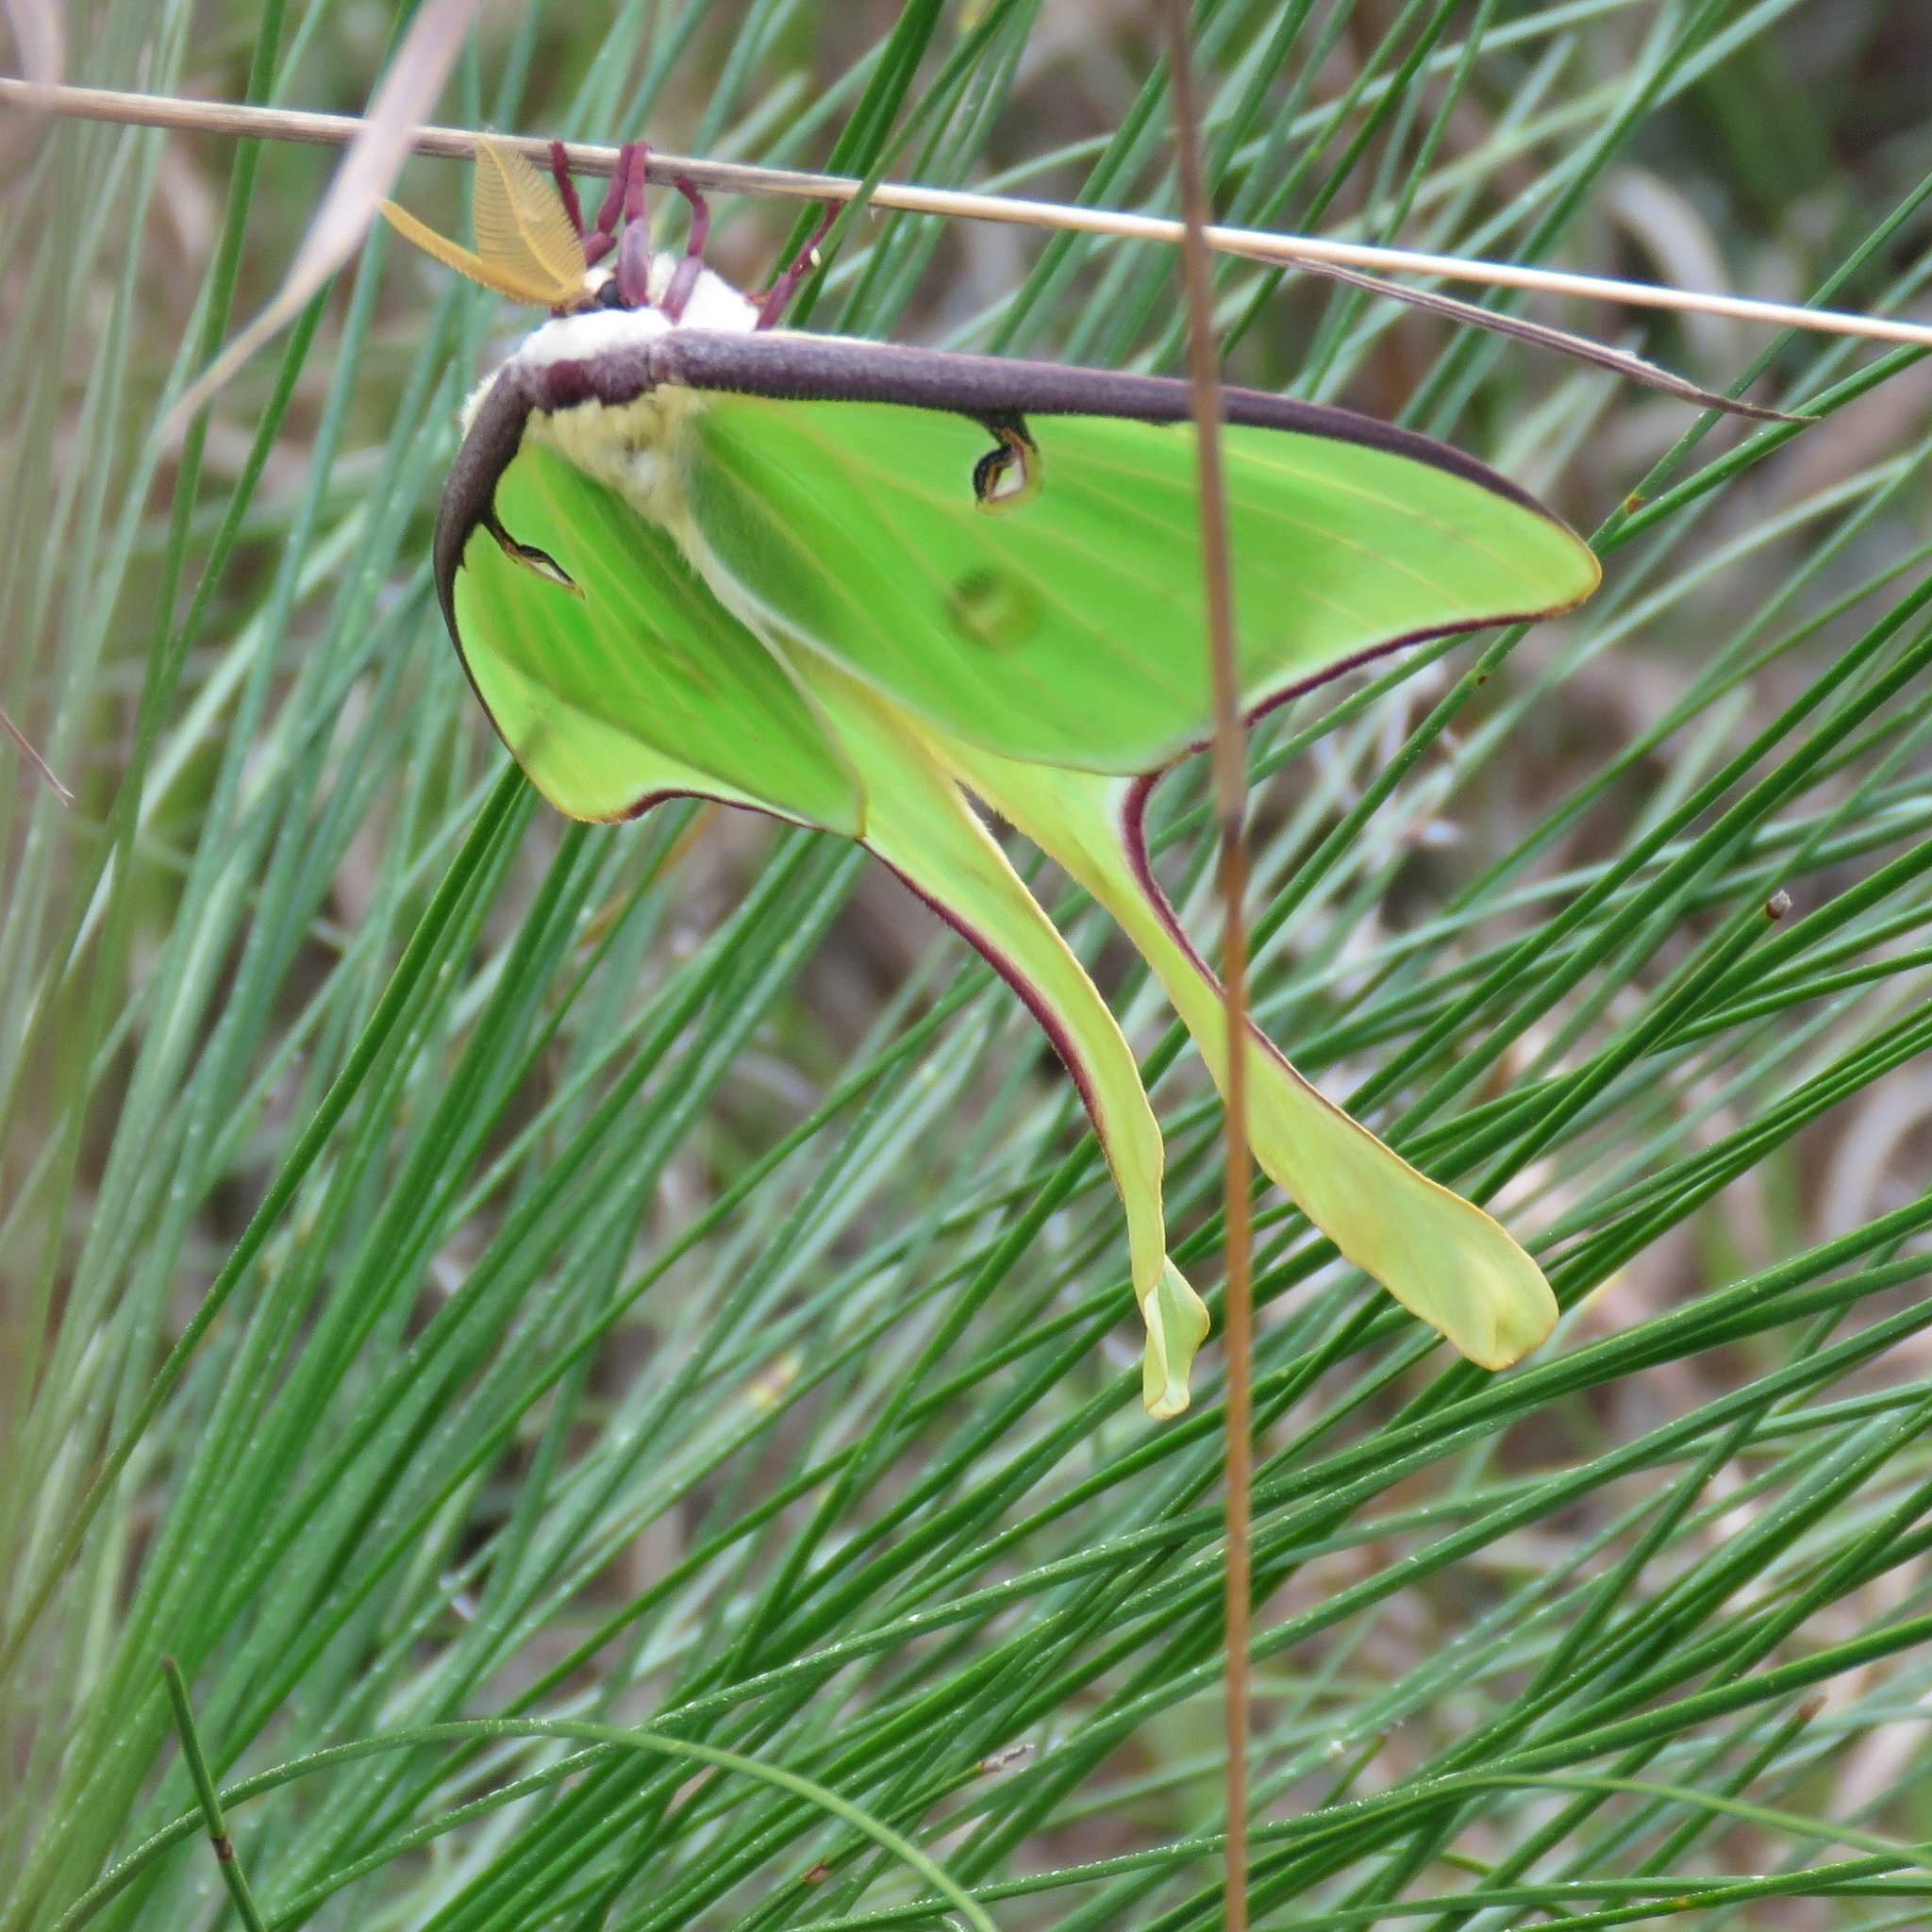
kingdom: Animalia
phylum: Arthropoda
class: Insecta
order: Lepidoptera
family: Saturniidae
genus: Actias
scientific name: Actias luna
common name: Luna moth
